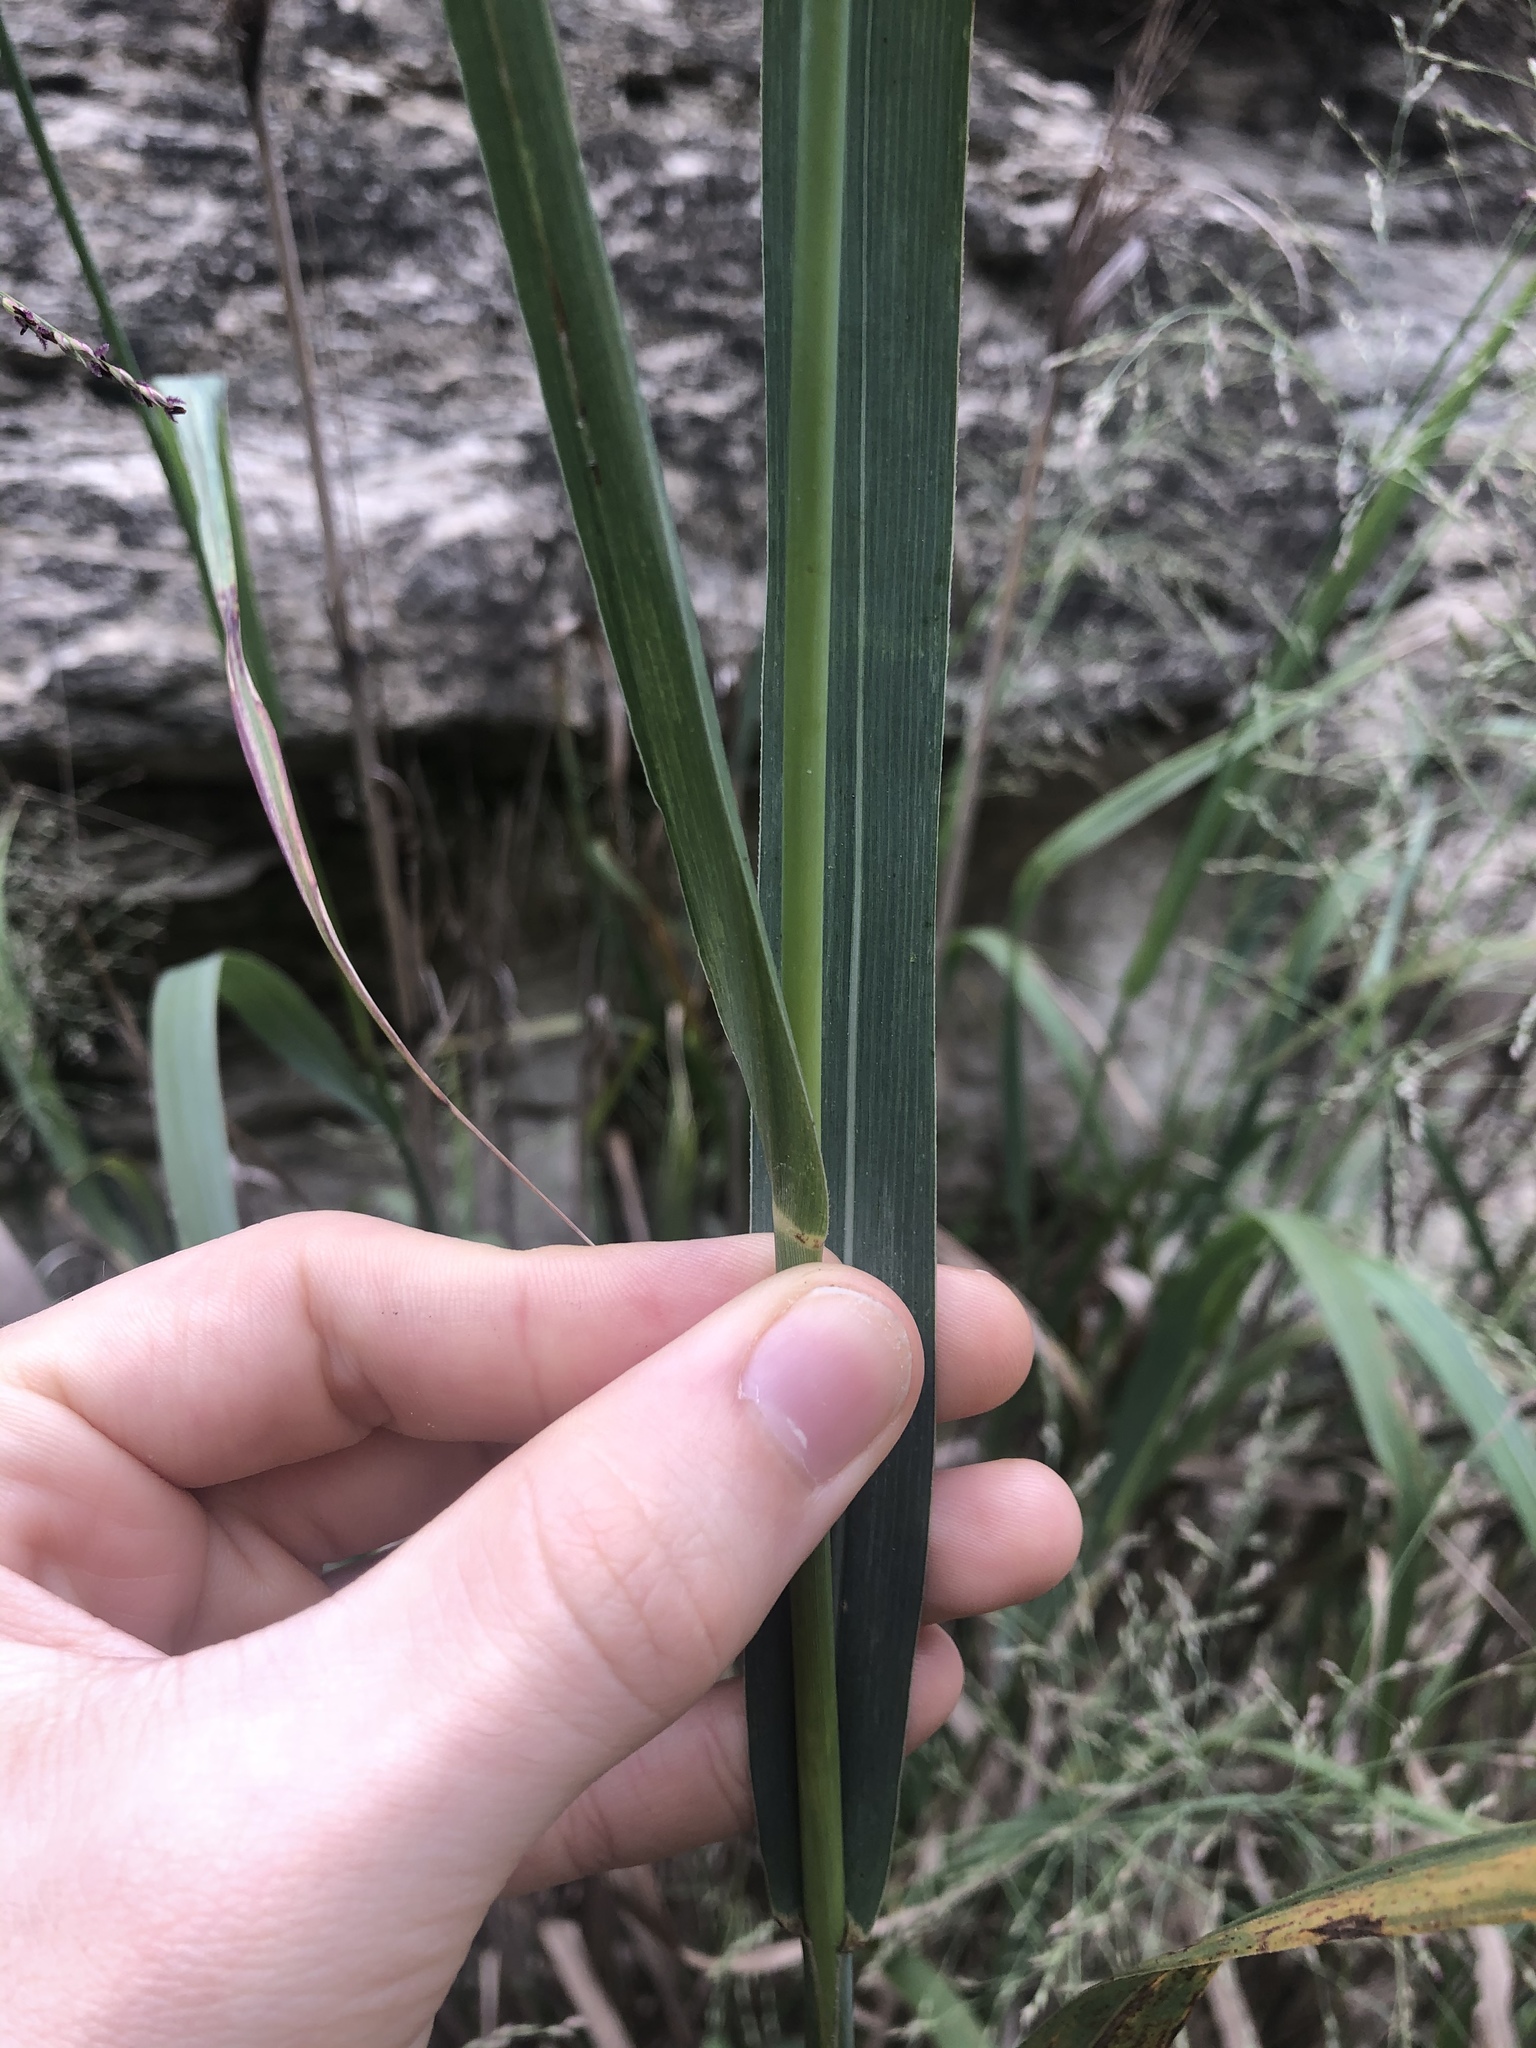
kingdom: Plantae
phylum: Tracheophyta
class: Liliopsida
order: Poales
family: Poaceae
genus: Panicum
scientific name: Panicum virgatum
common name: Switchgrass
